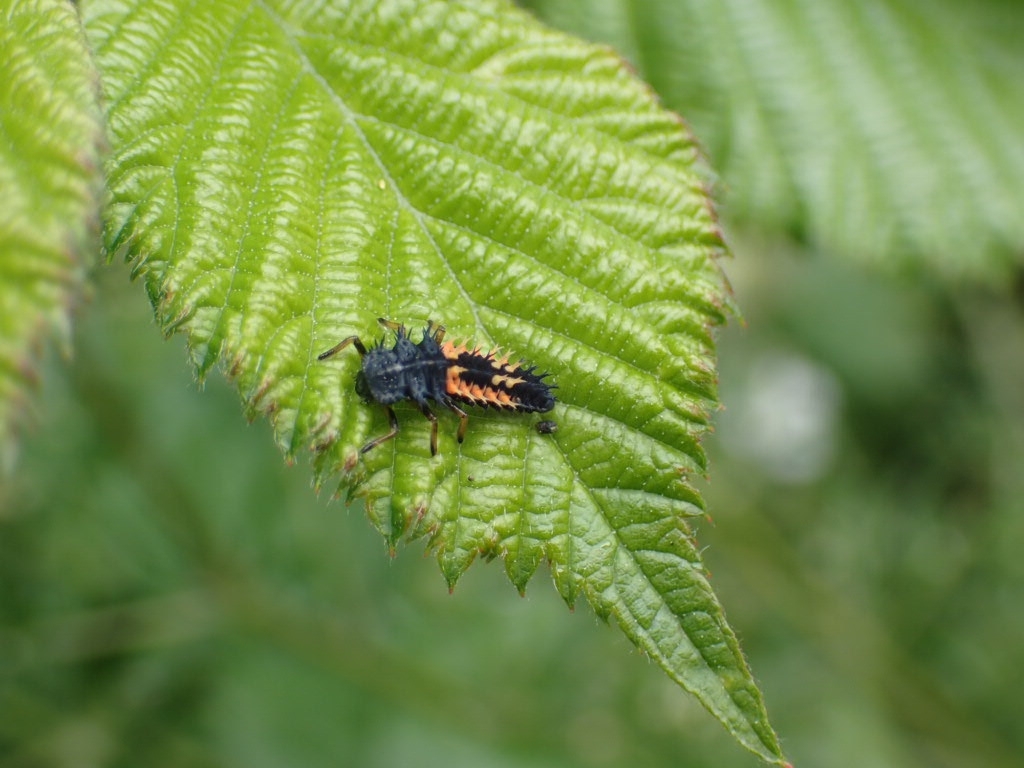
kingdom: Animalia
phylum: Arthropoda
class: Insecta
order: Coleoptera
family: Coccinellidae
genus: Harmonia
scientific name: Harmonia axyridis
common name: Harlequin ladybird
